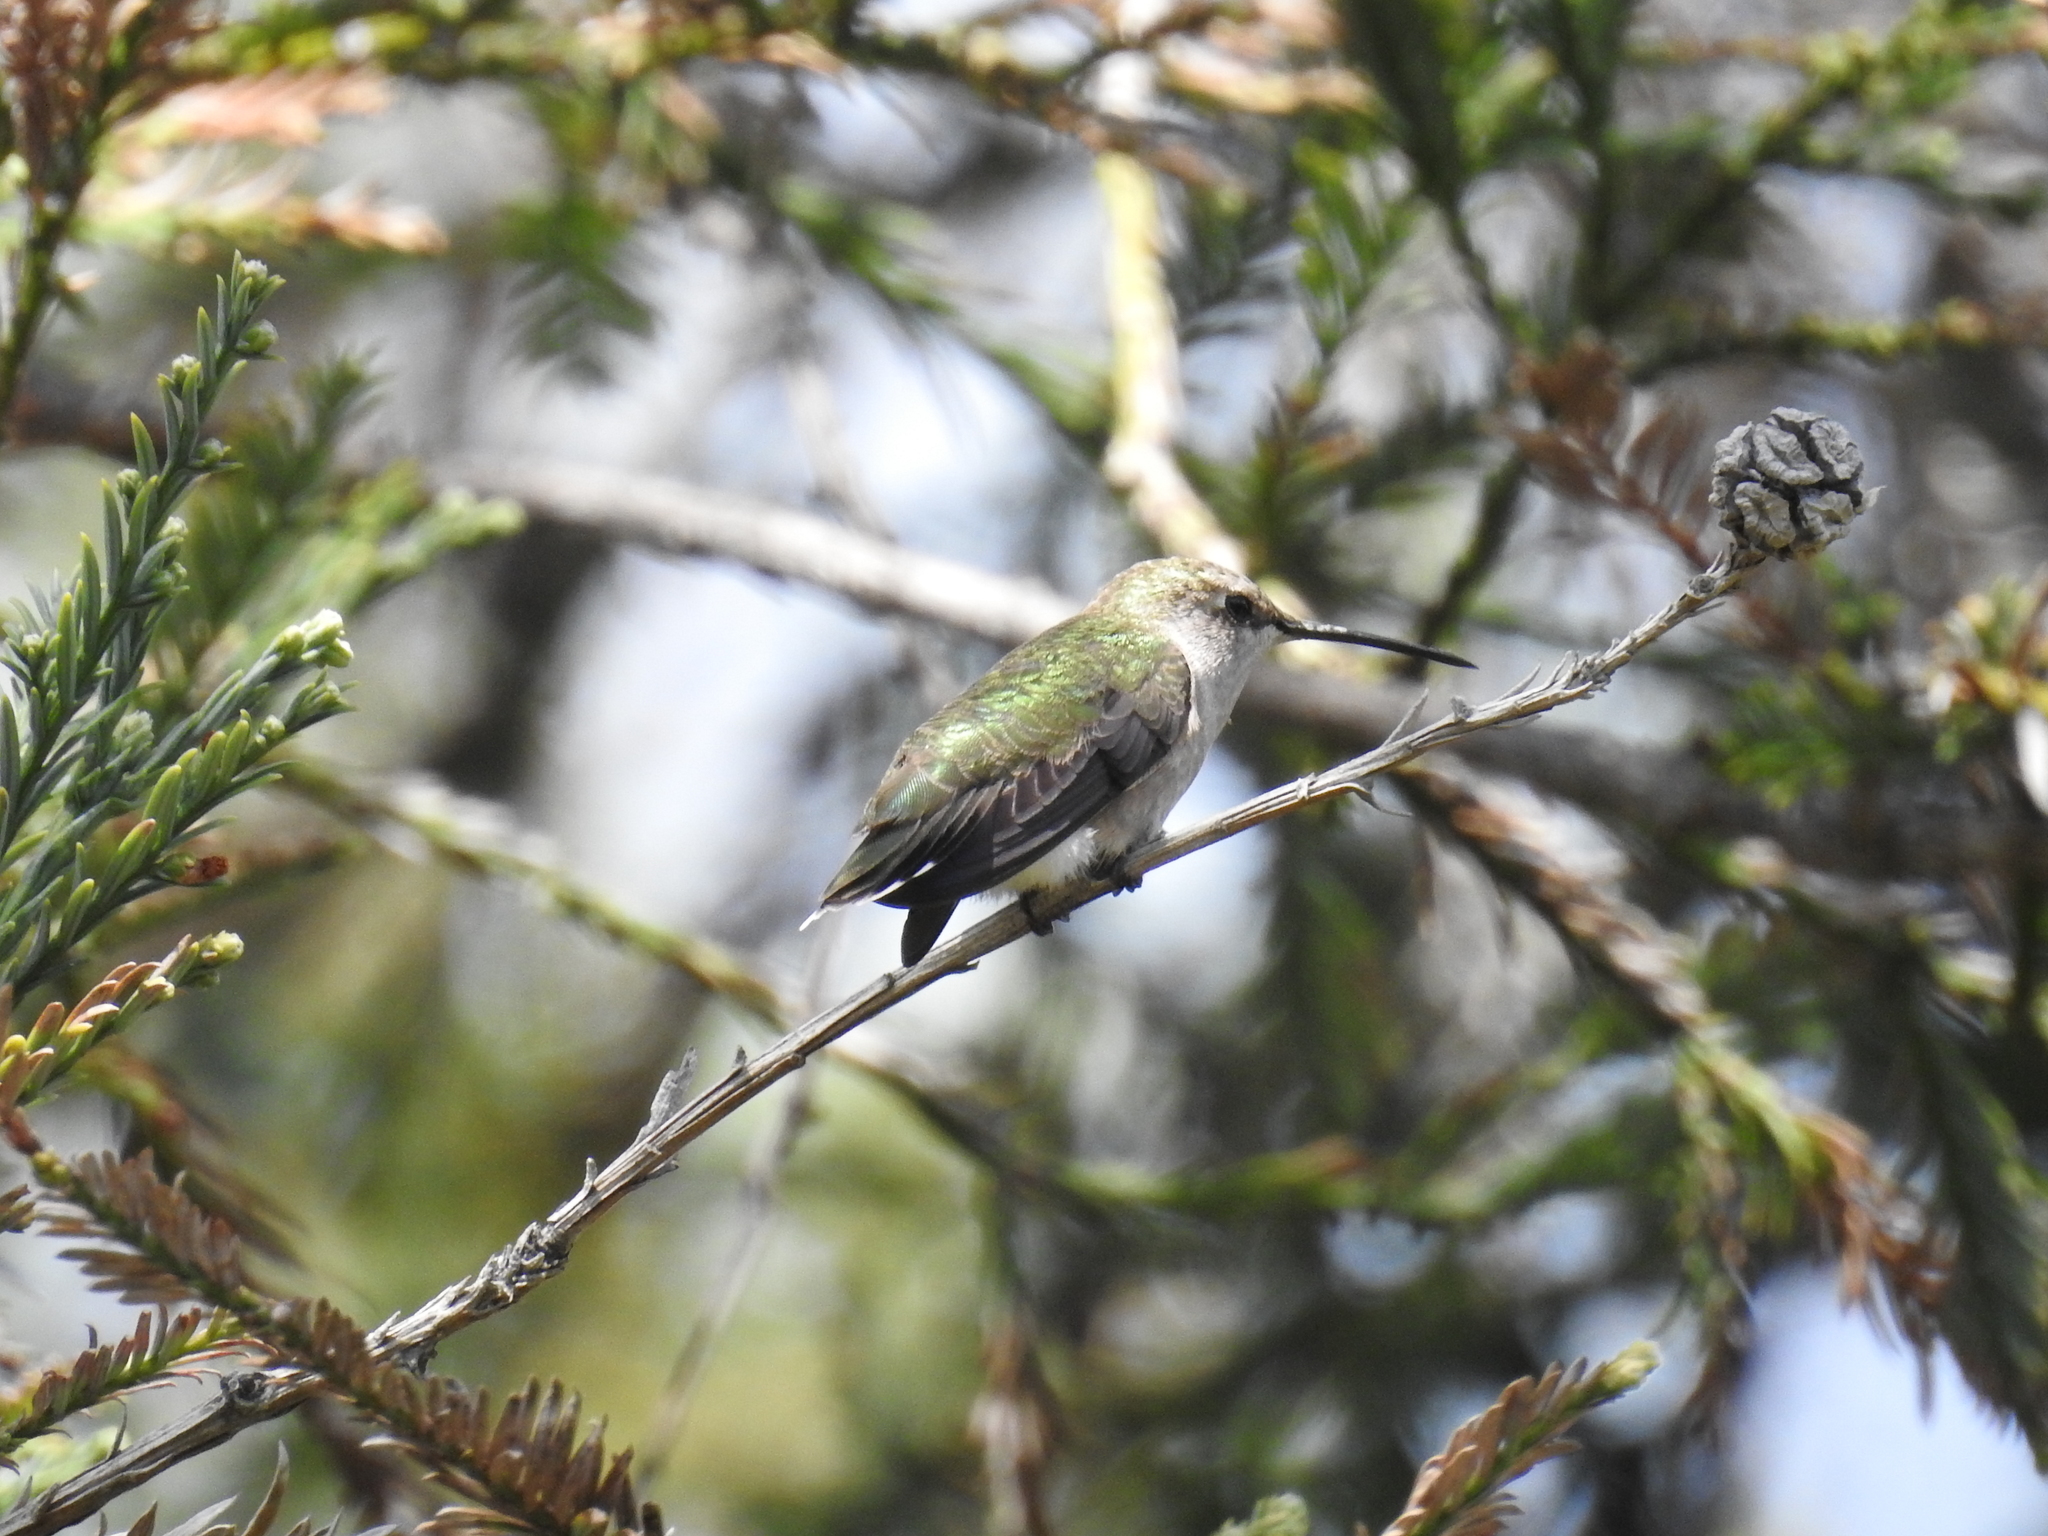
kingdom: Animalia
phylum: Chordata
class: Aves
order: Apodiformes
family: Trochilidae
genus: Archilochus
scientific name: Archilochus alexandri
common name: Black-chinned hummingbird
